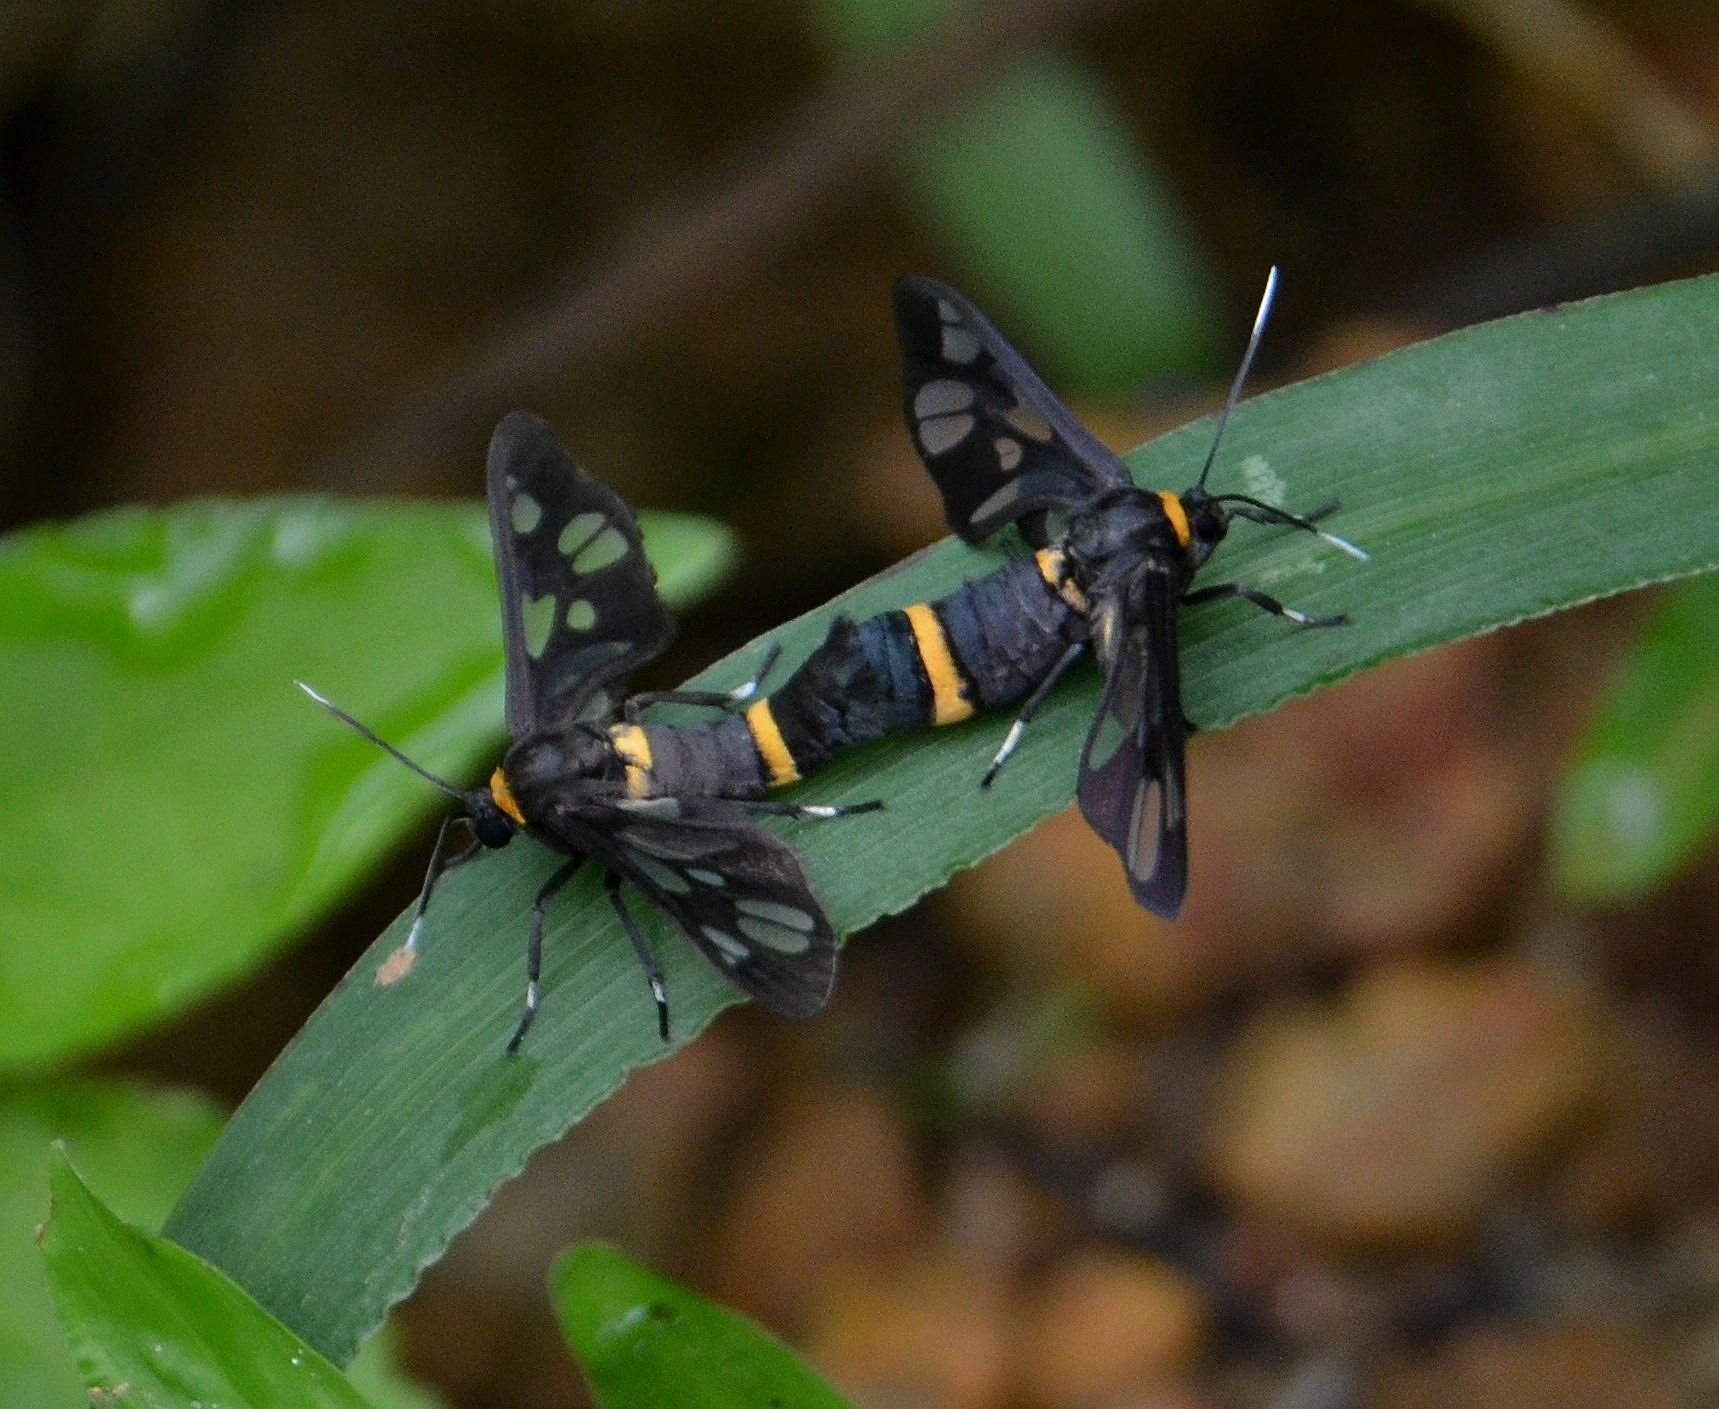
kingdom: Animalia
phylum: Arthropoda
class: Insecta
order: Lepidoptera
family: Erebidae
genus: Amata
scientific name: Amata cyssea
